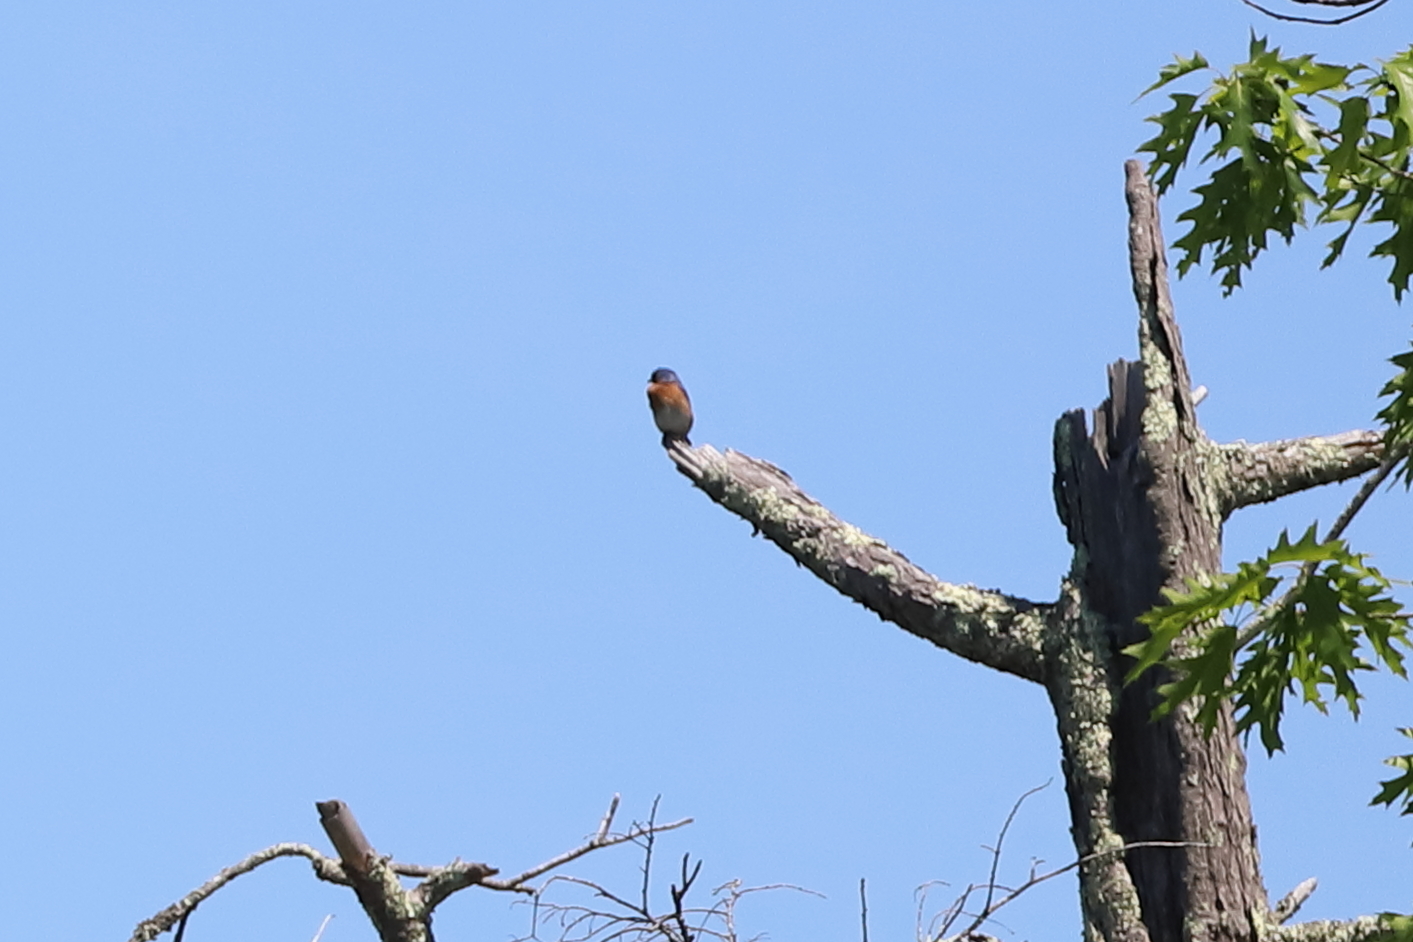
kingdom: Animalia
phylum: Chordata
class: Aves
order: Passeriformes
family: Turdidae
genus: Sialia
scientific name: Sialia sialis
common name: Eastern bluebird
